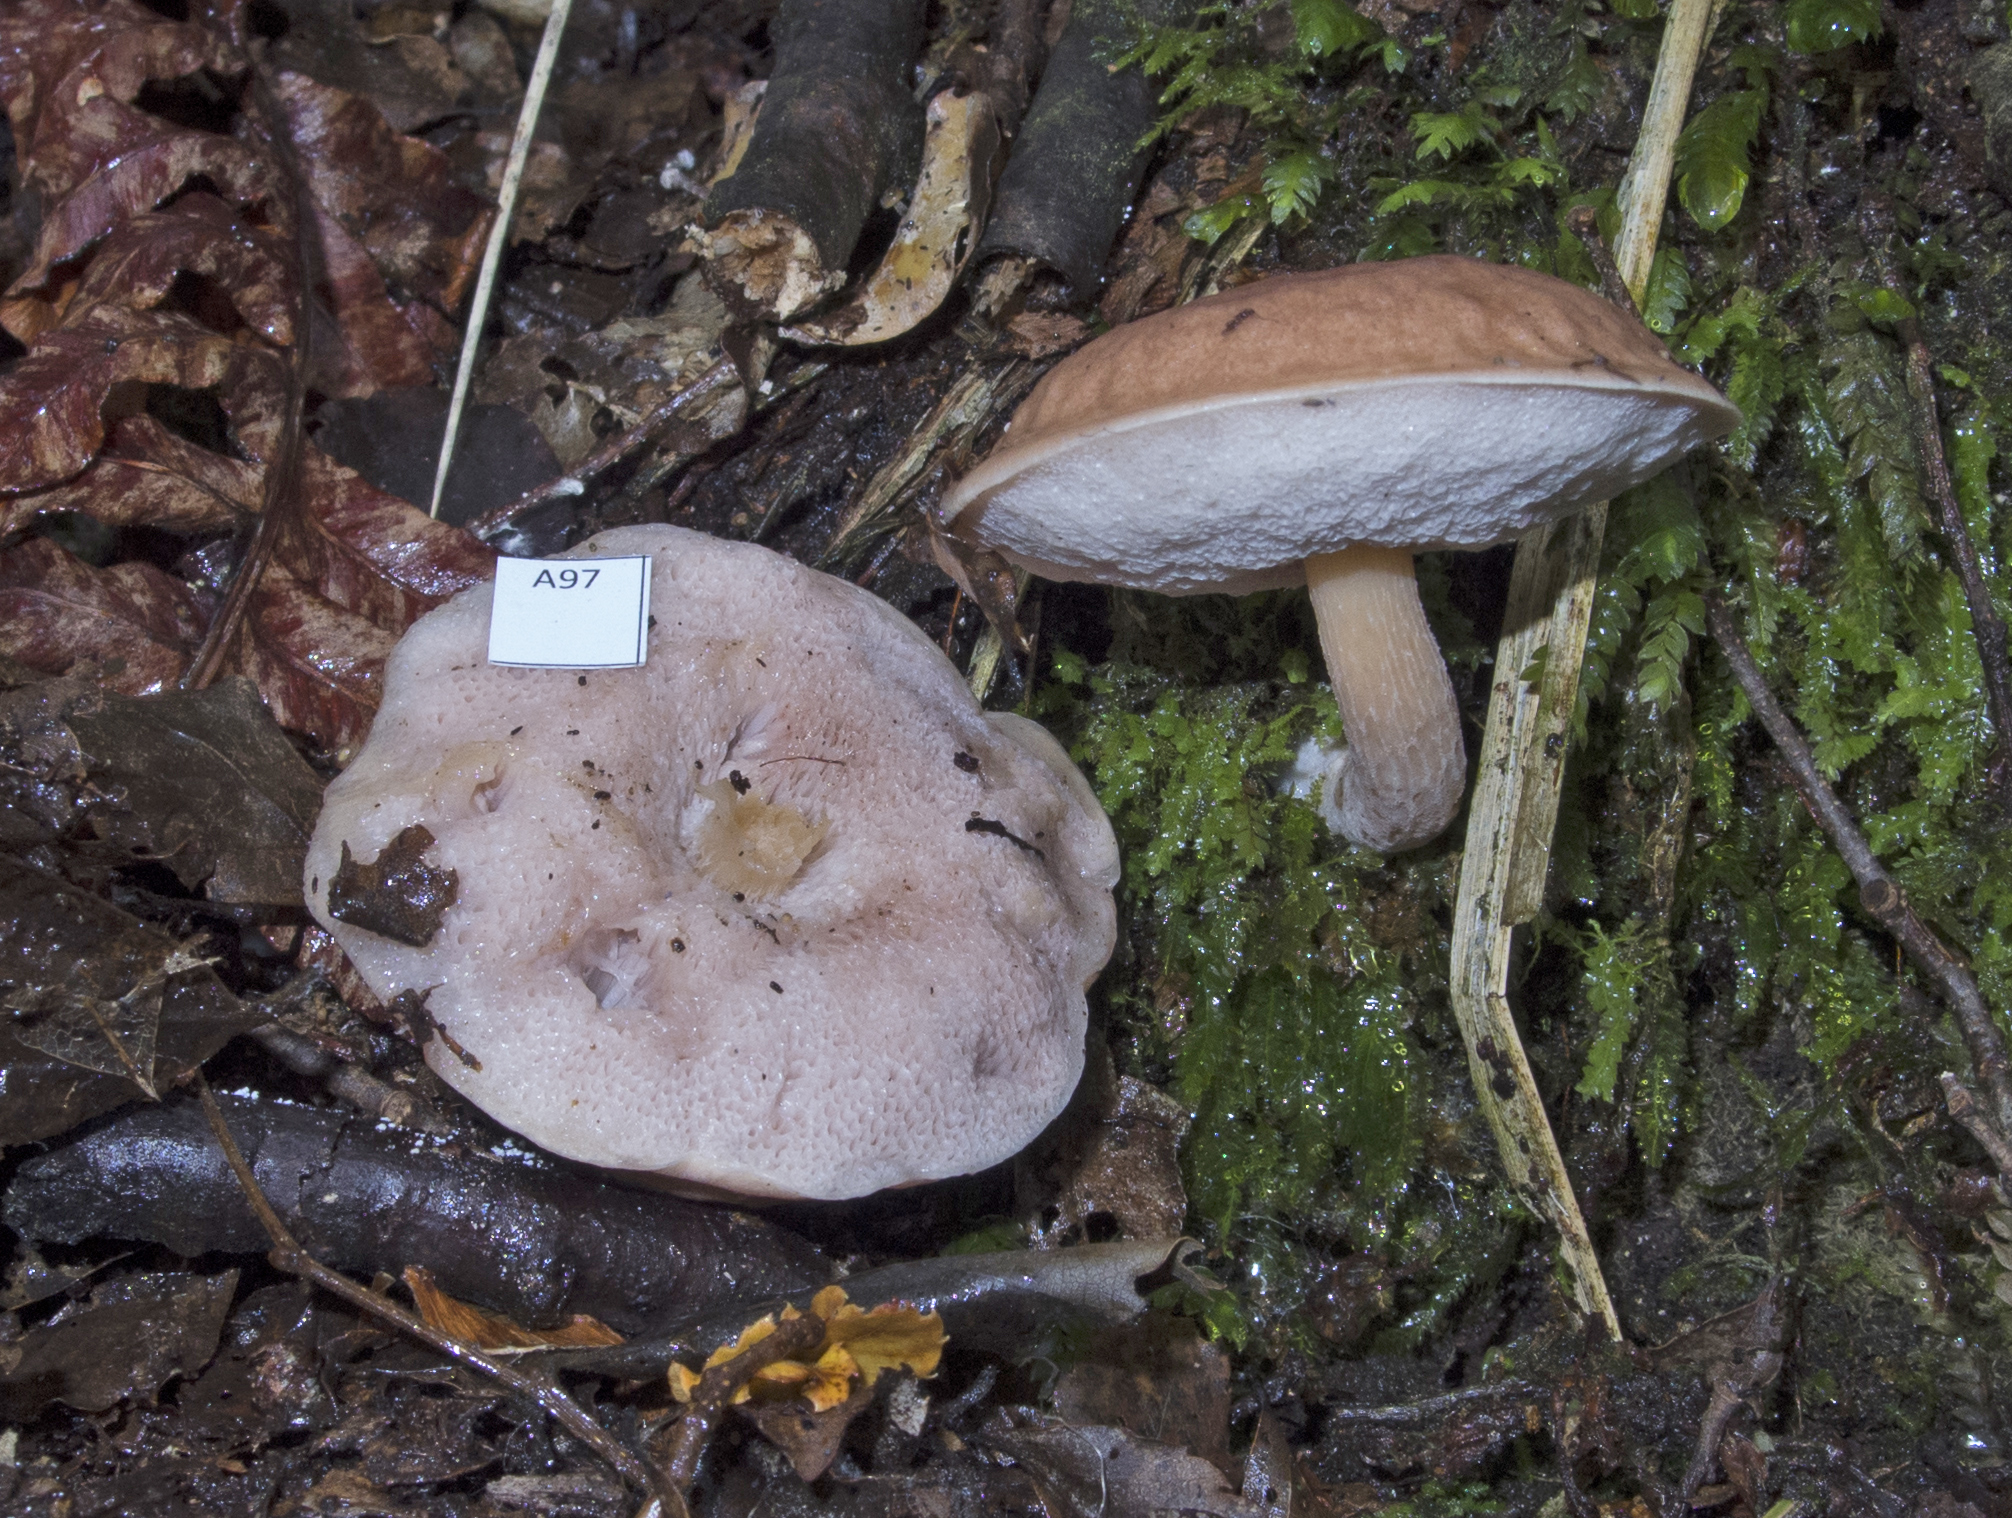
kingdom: Fungi
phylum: Basidiomycota
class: Agaricomycetes
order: Boletales
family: Boletaceae
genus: Fistulinella
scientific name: Fistulinella violaceipora
